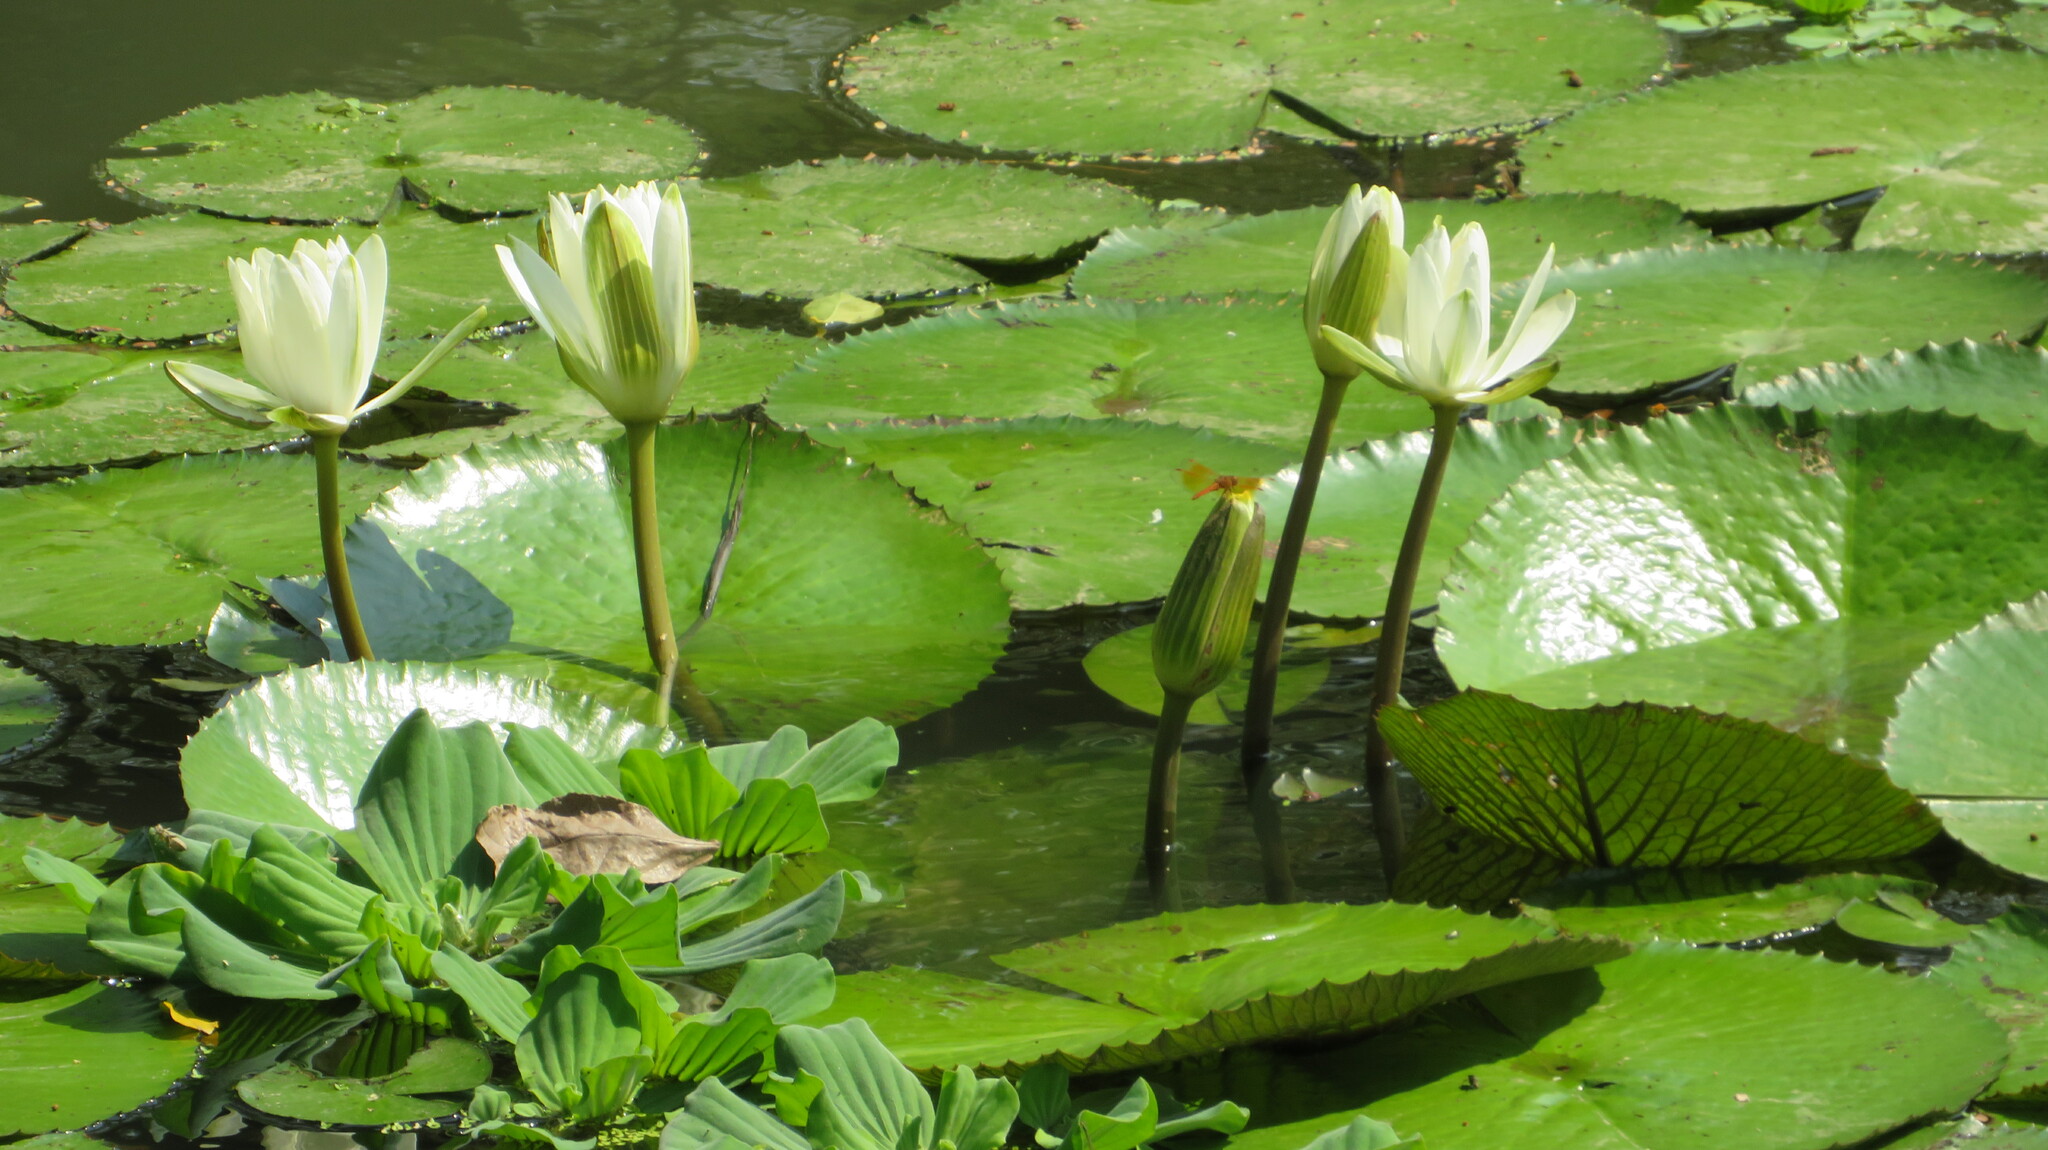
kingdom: Plantae
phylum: Tracheophyta
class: Magnoliopsida
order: Nymphaeales
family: Nymphaeaceae
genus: Nymphaea
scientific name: Nymphaea lotus
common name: White egyptian lotus
